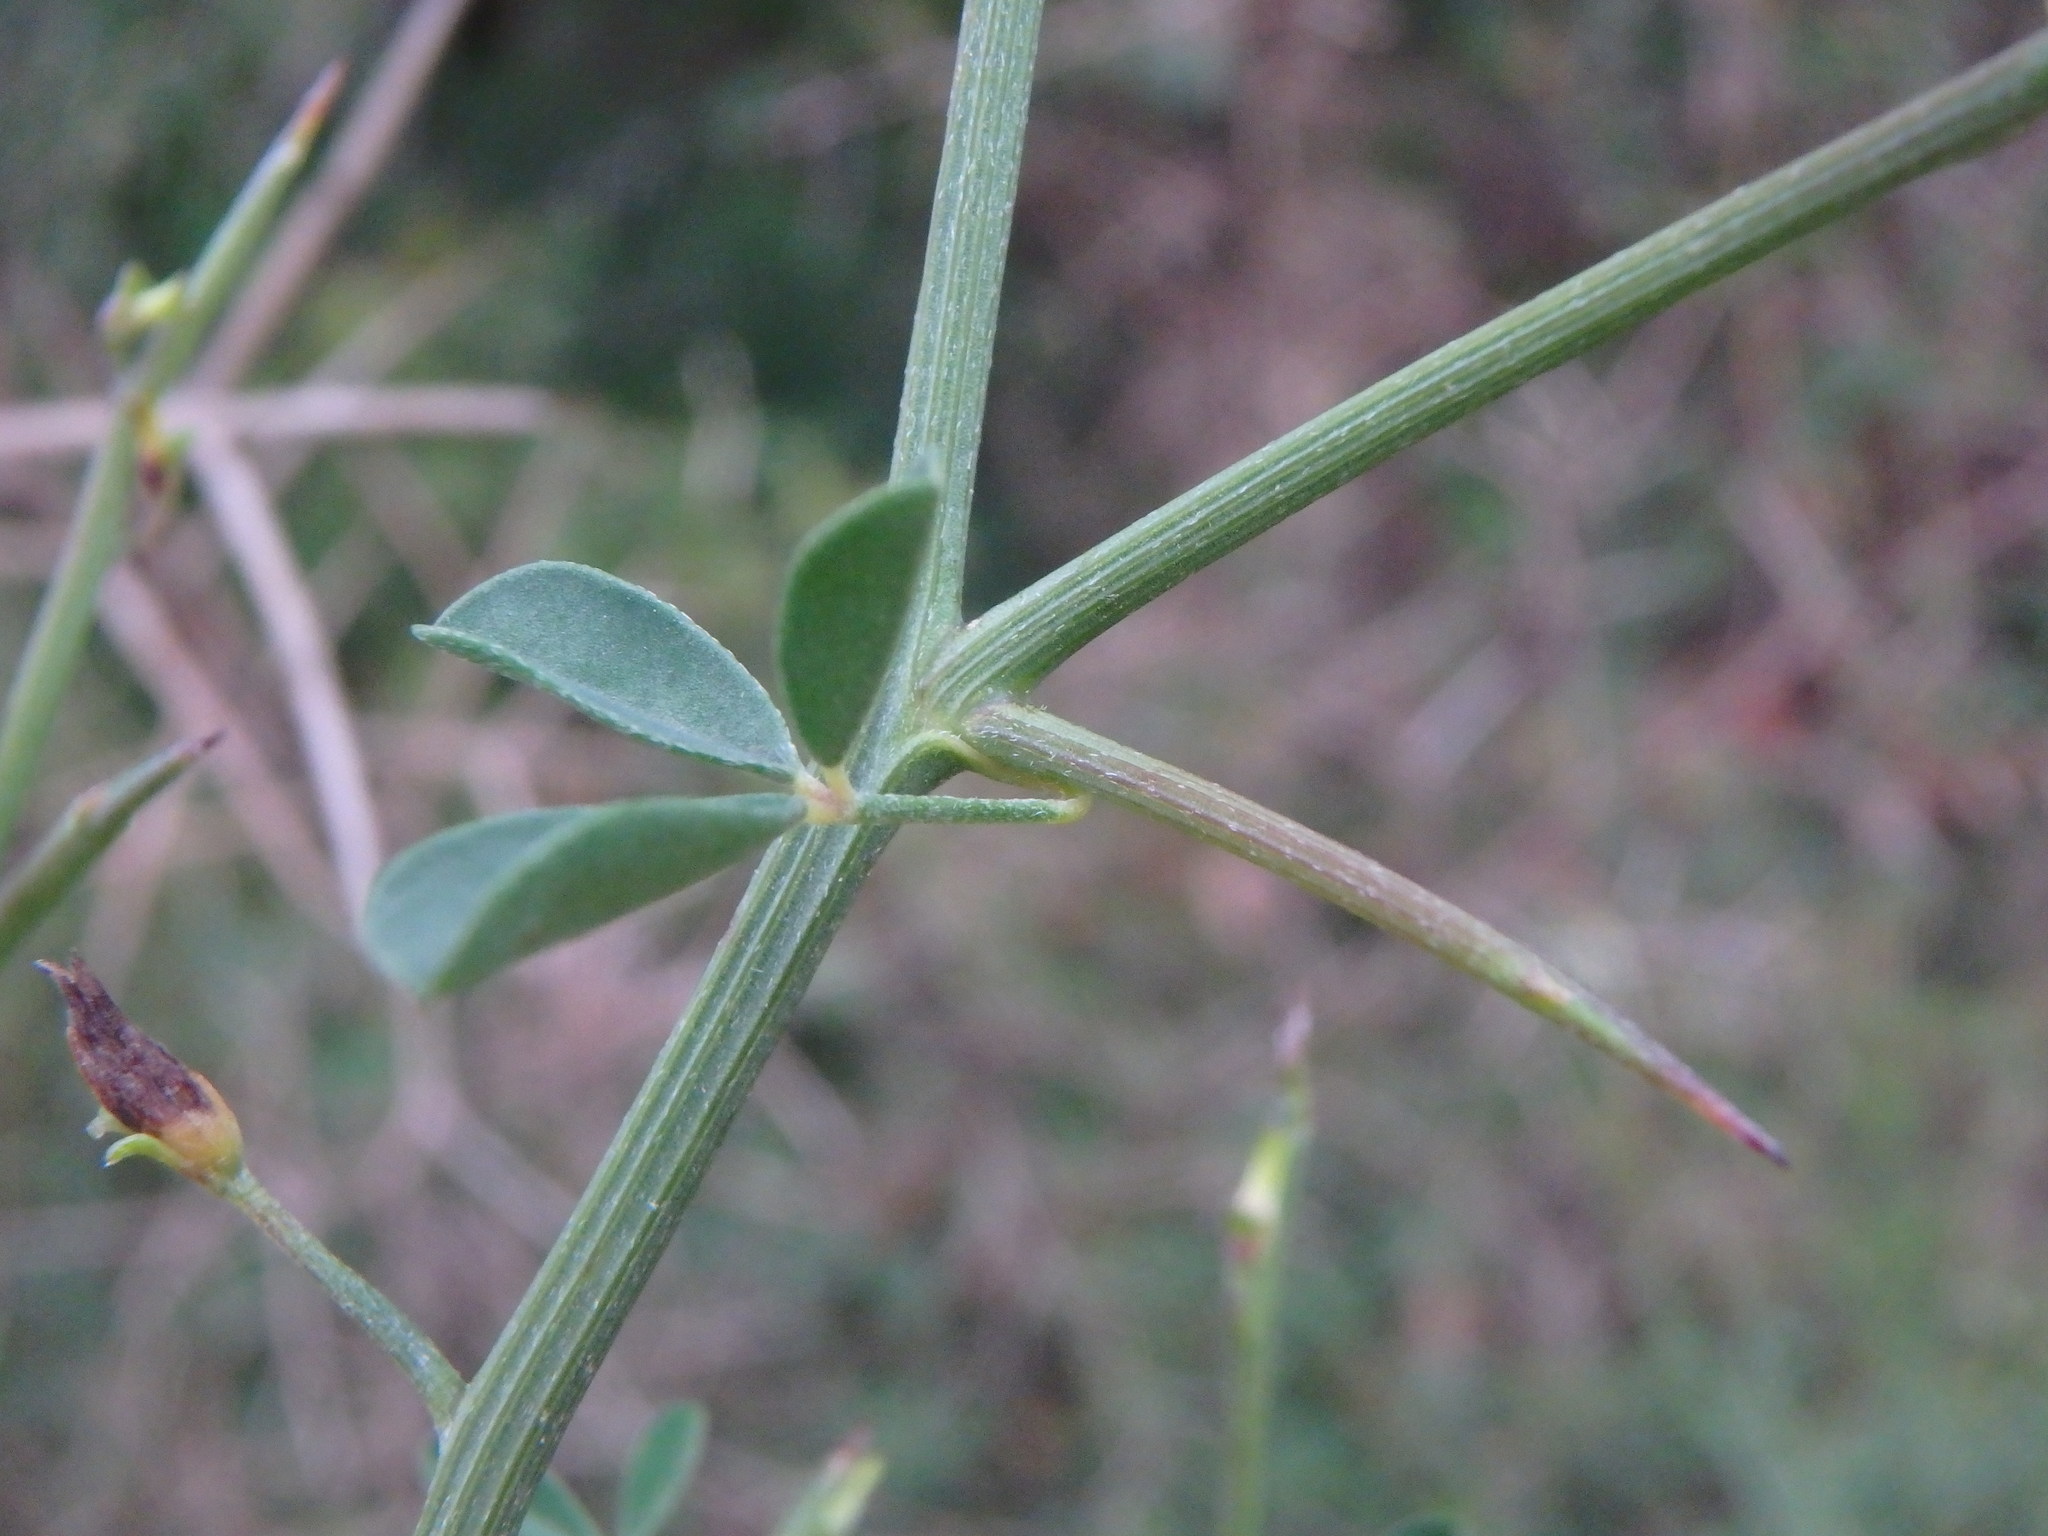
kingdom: Plantae
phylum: Tracheophyta
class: Magnoliopsida
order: Fabales
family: Fabaceae
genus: Calicotome
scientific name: Calicotome spinosa
